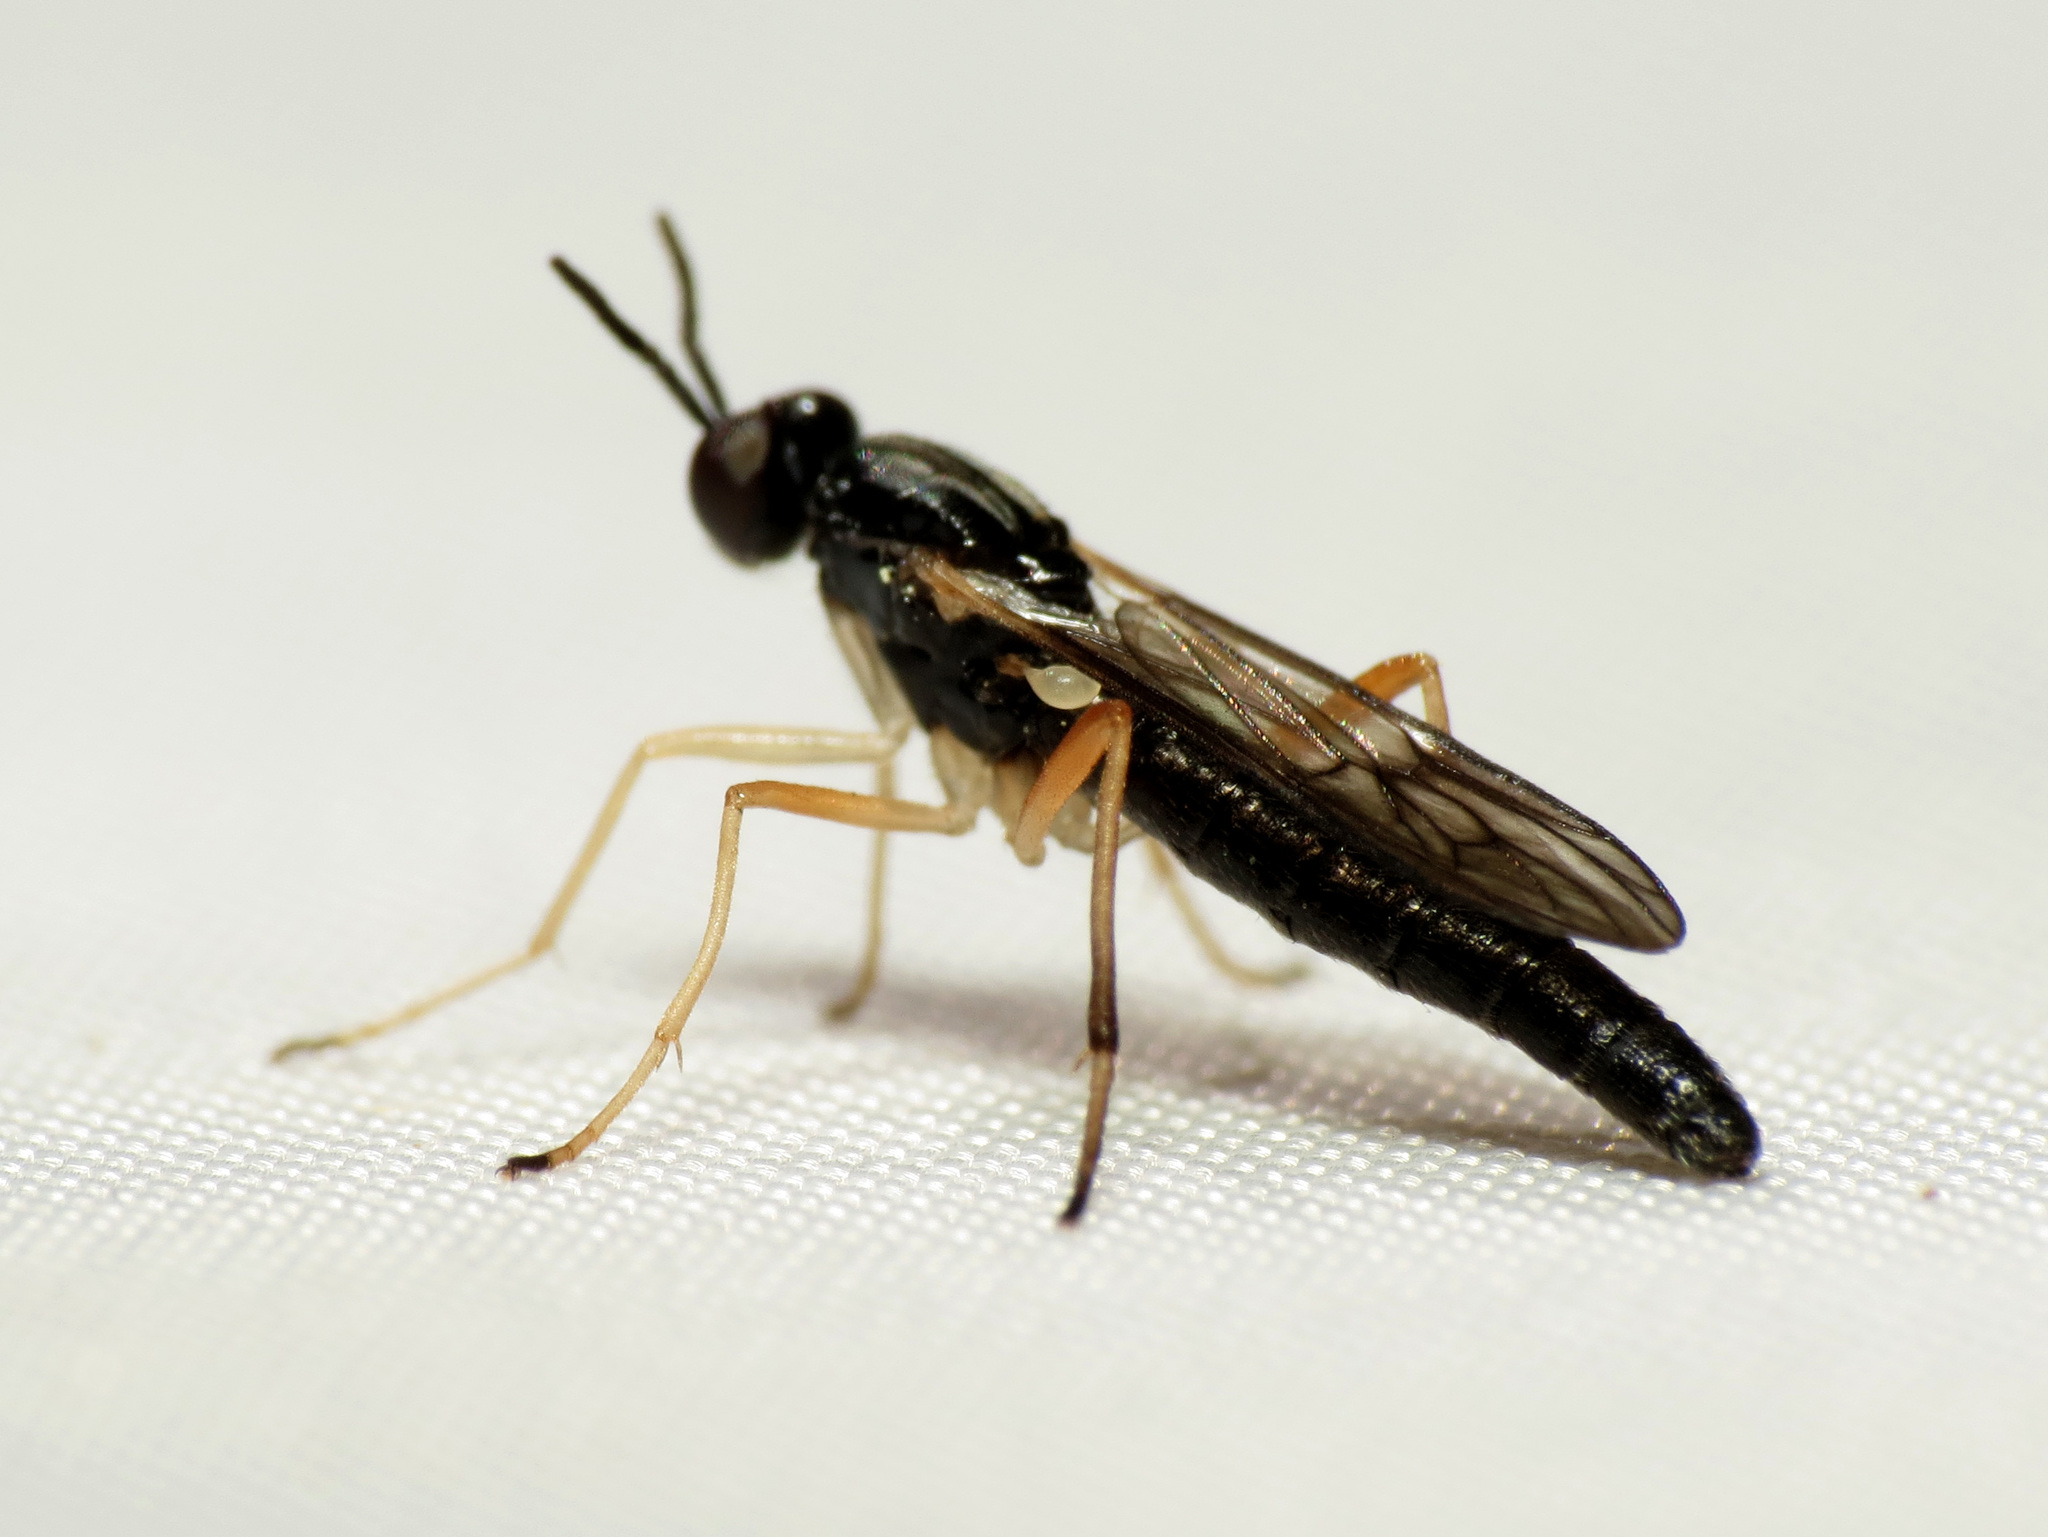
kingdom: Animalia
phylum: Arthropoda
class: Insecta
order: Diptera
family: Xylophagidae
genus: Xylophagus
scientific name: Xylophagus reflectens
